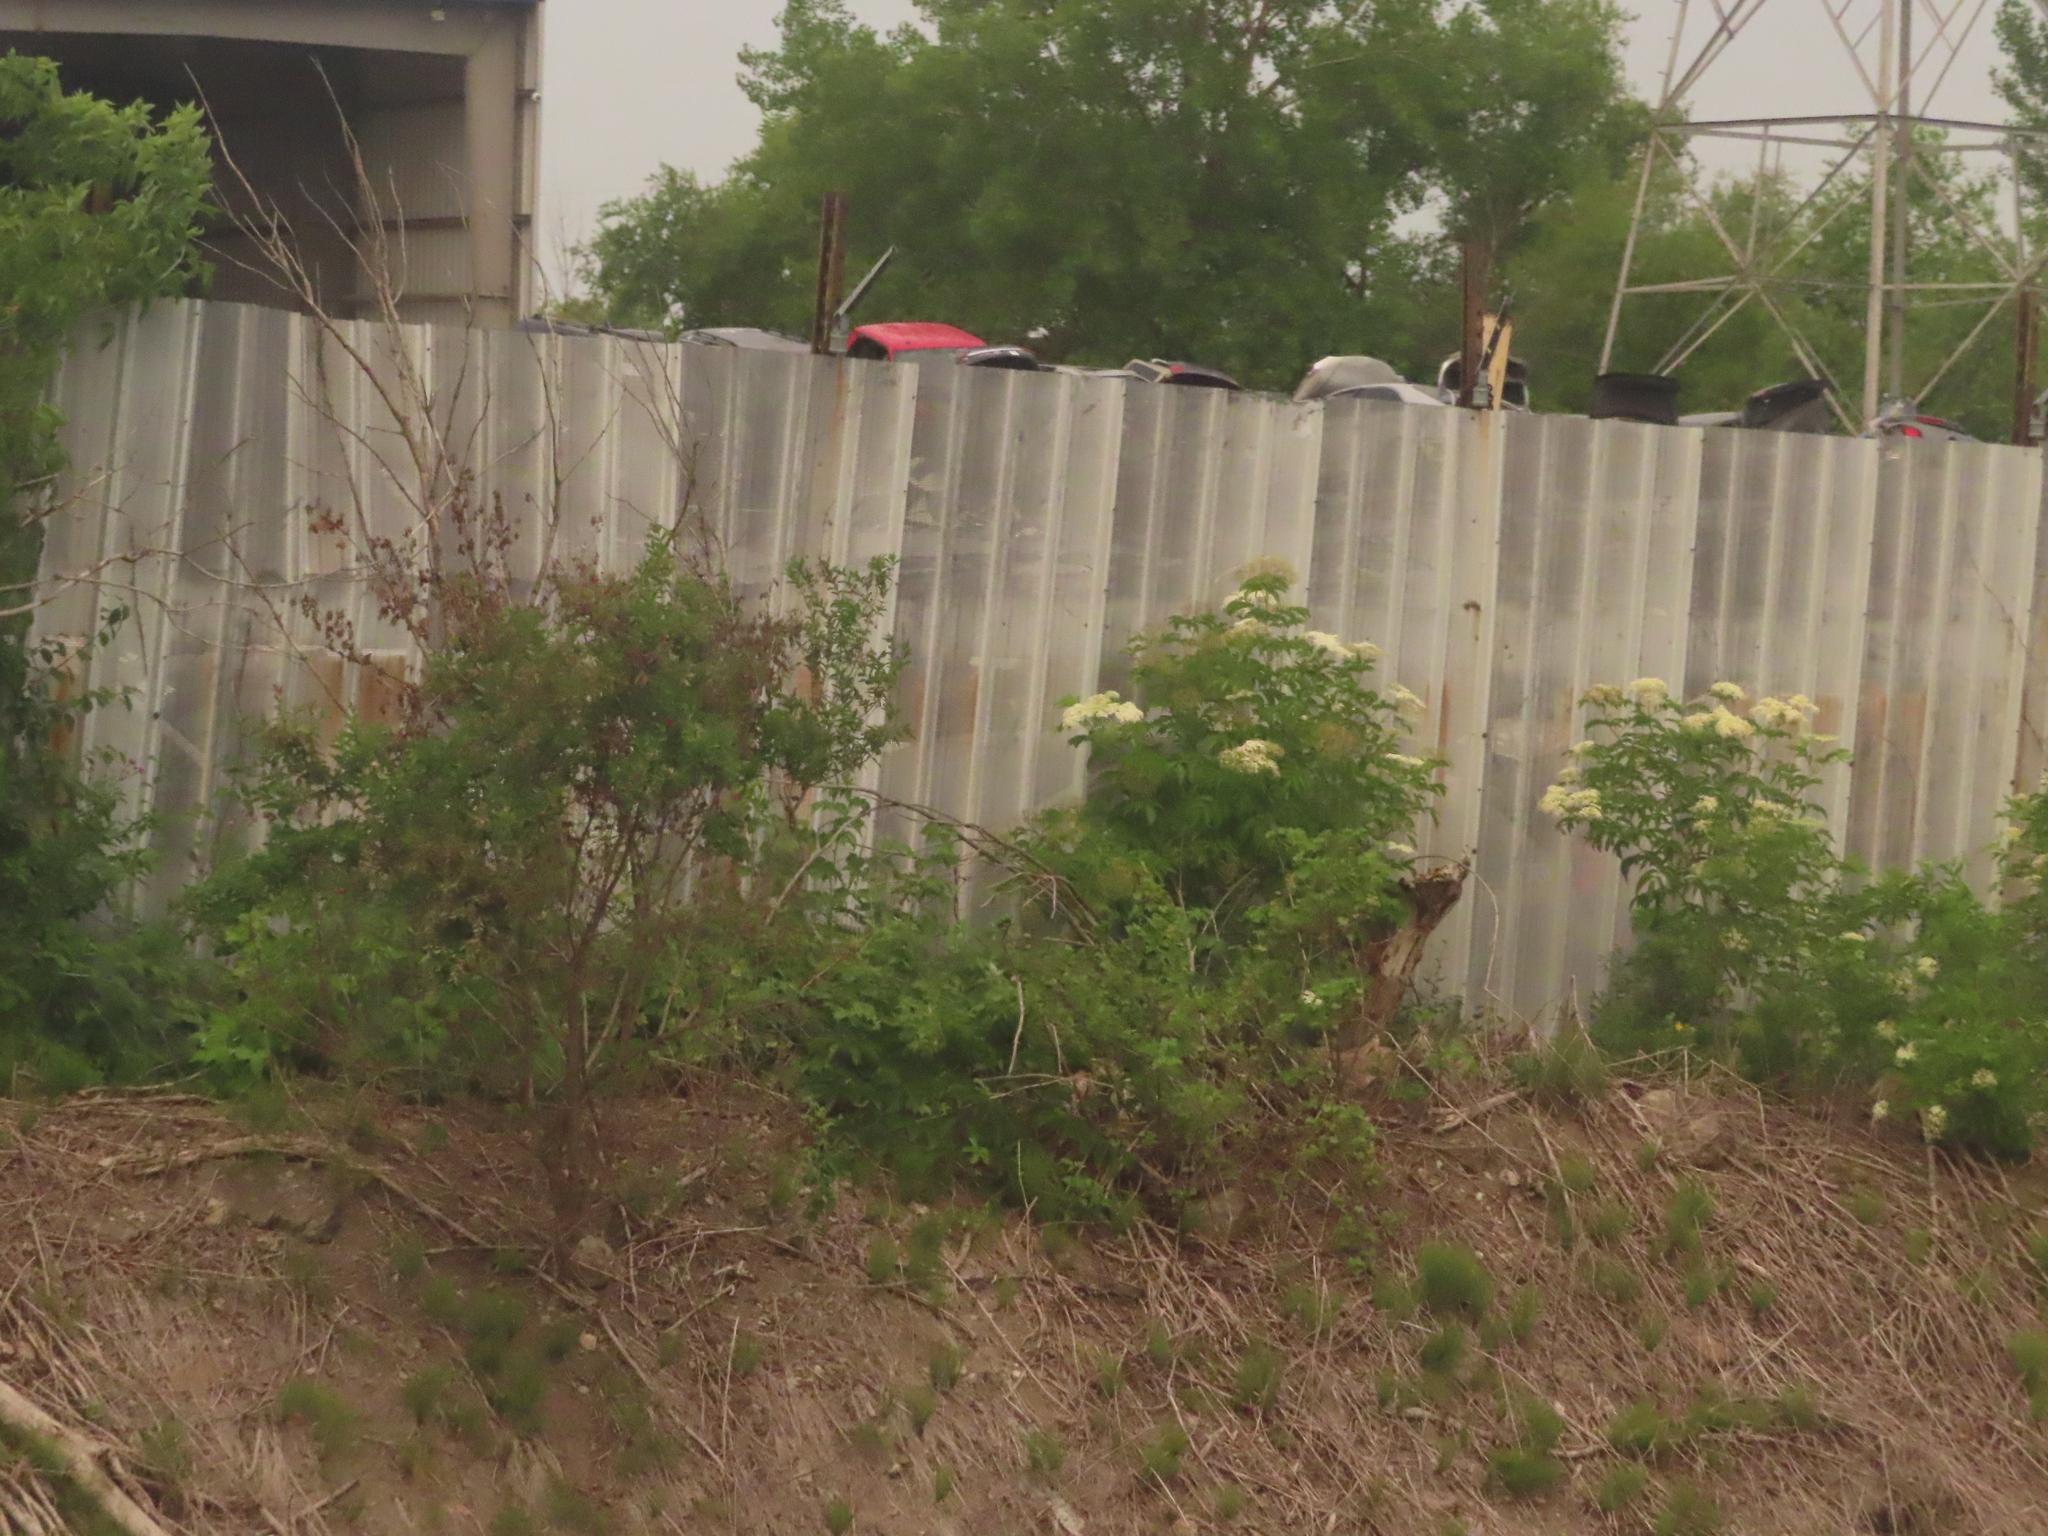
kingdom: Plantae
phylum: Tracheophyta
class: Magnoliopsida
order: Dipsacales
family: Viburnaceae
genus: Sambucus
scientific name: Sambucus canadensis
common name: American elder
